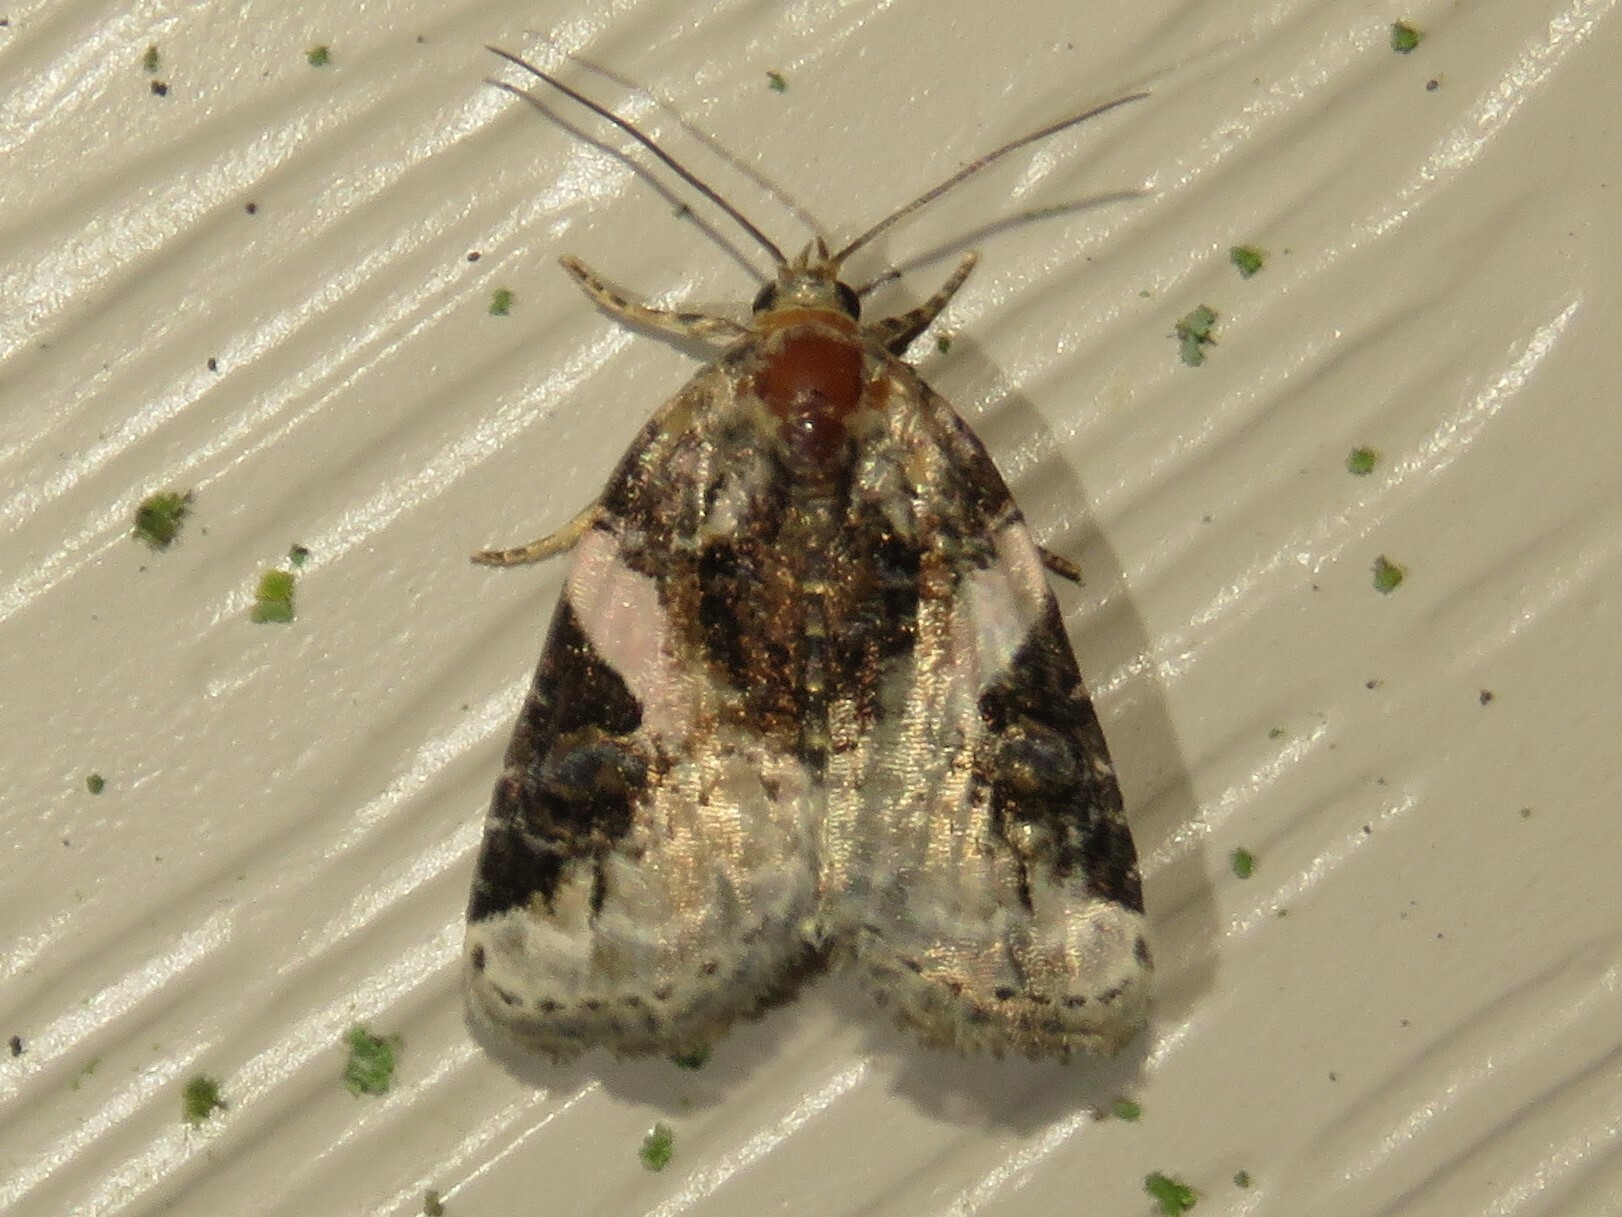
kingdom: Animalia
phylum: Arthropoda
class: Insecta
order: Lepidoptera
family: Noctuidae
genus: Pseudeustrotia
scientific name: Pseudeustrotia carneola
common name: Pink-barred lithacodia moth
